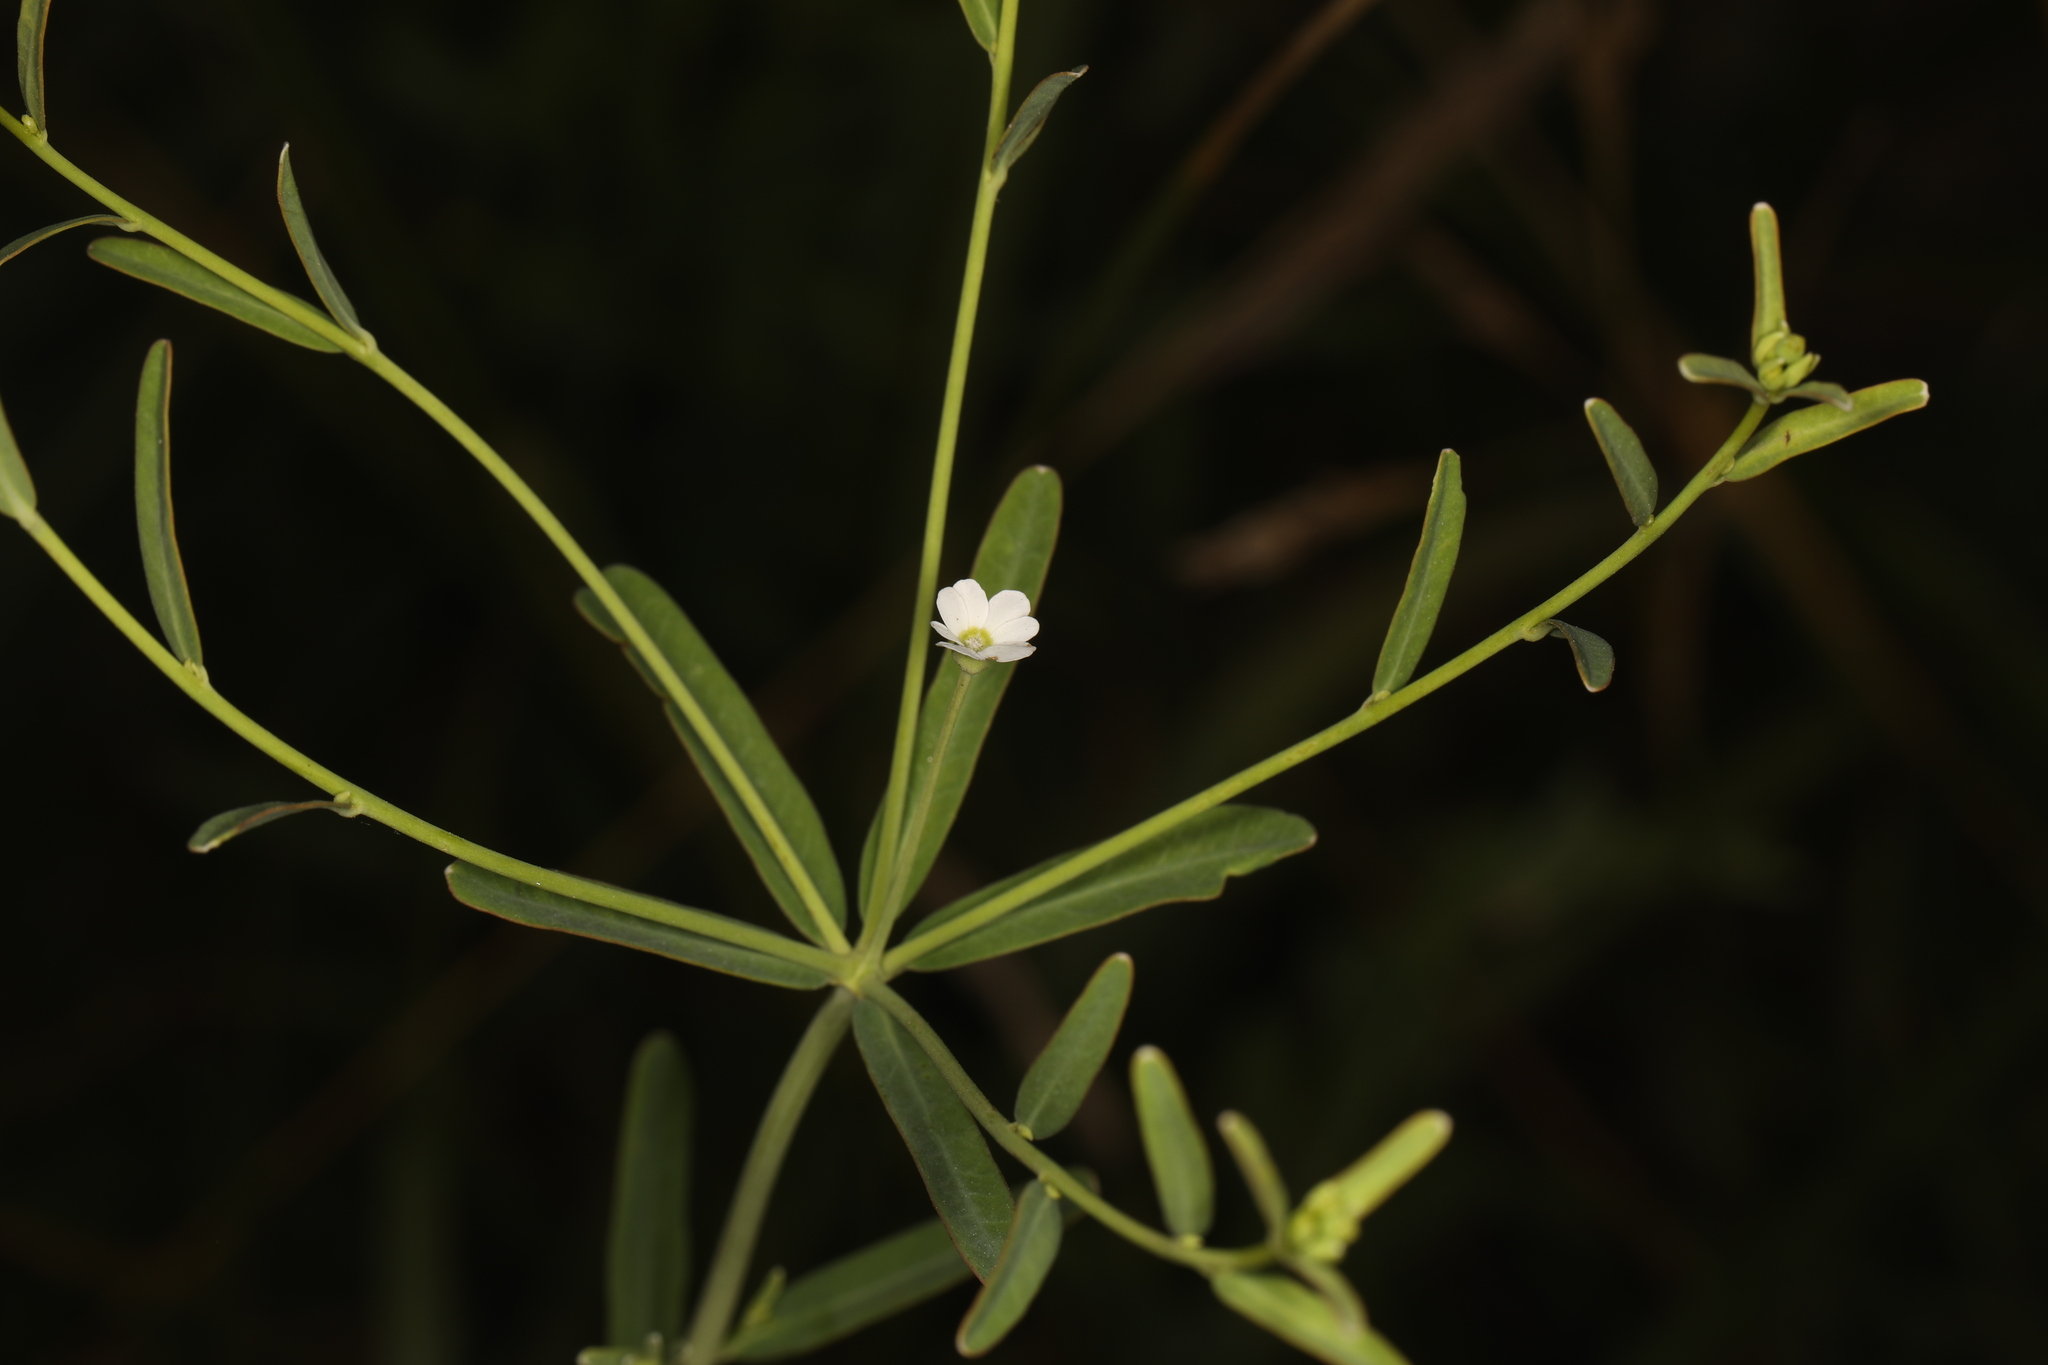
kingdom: Plantae
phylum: Tracheophyta
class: Magnoliopsida
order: Malpighiales
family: Euphorbiaceae
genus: Euphorbia
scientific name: Euphorbia corollata
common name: Flowering spurge
